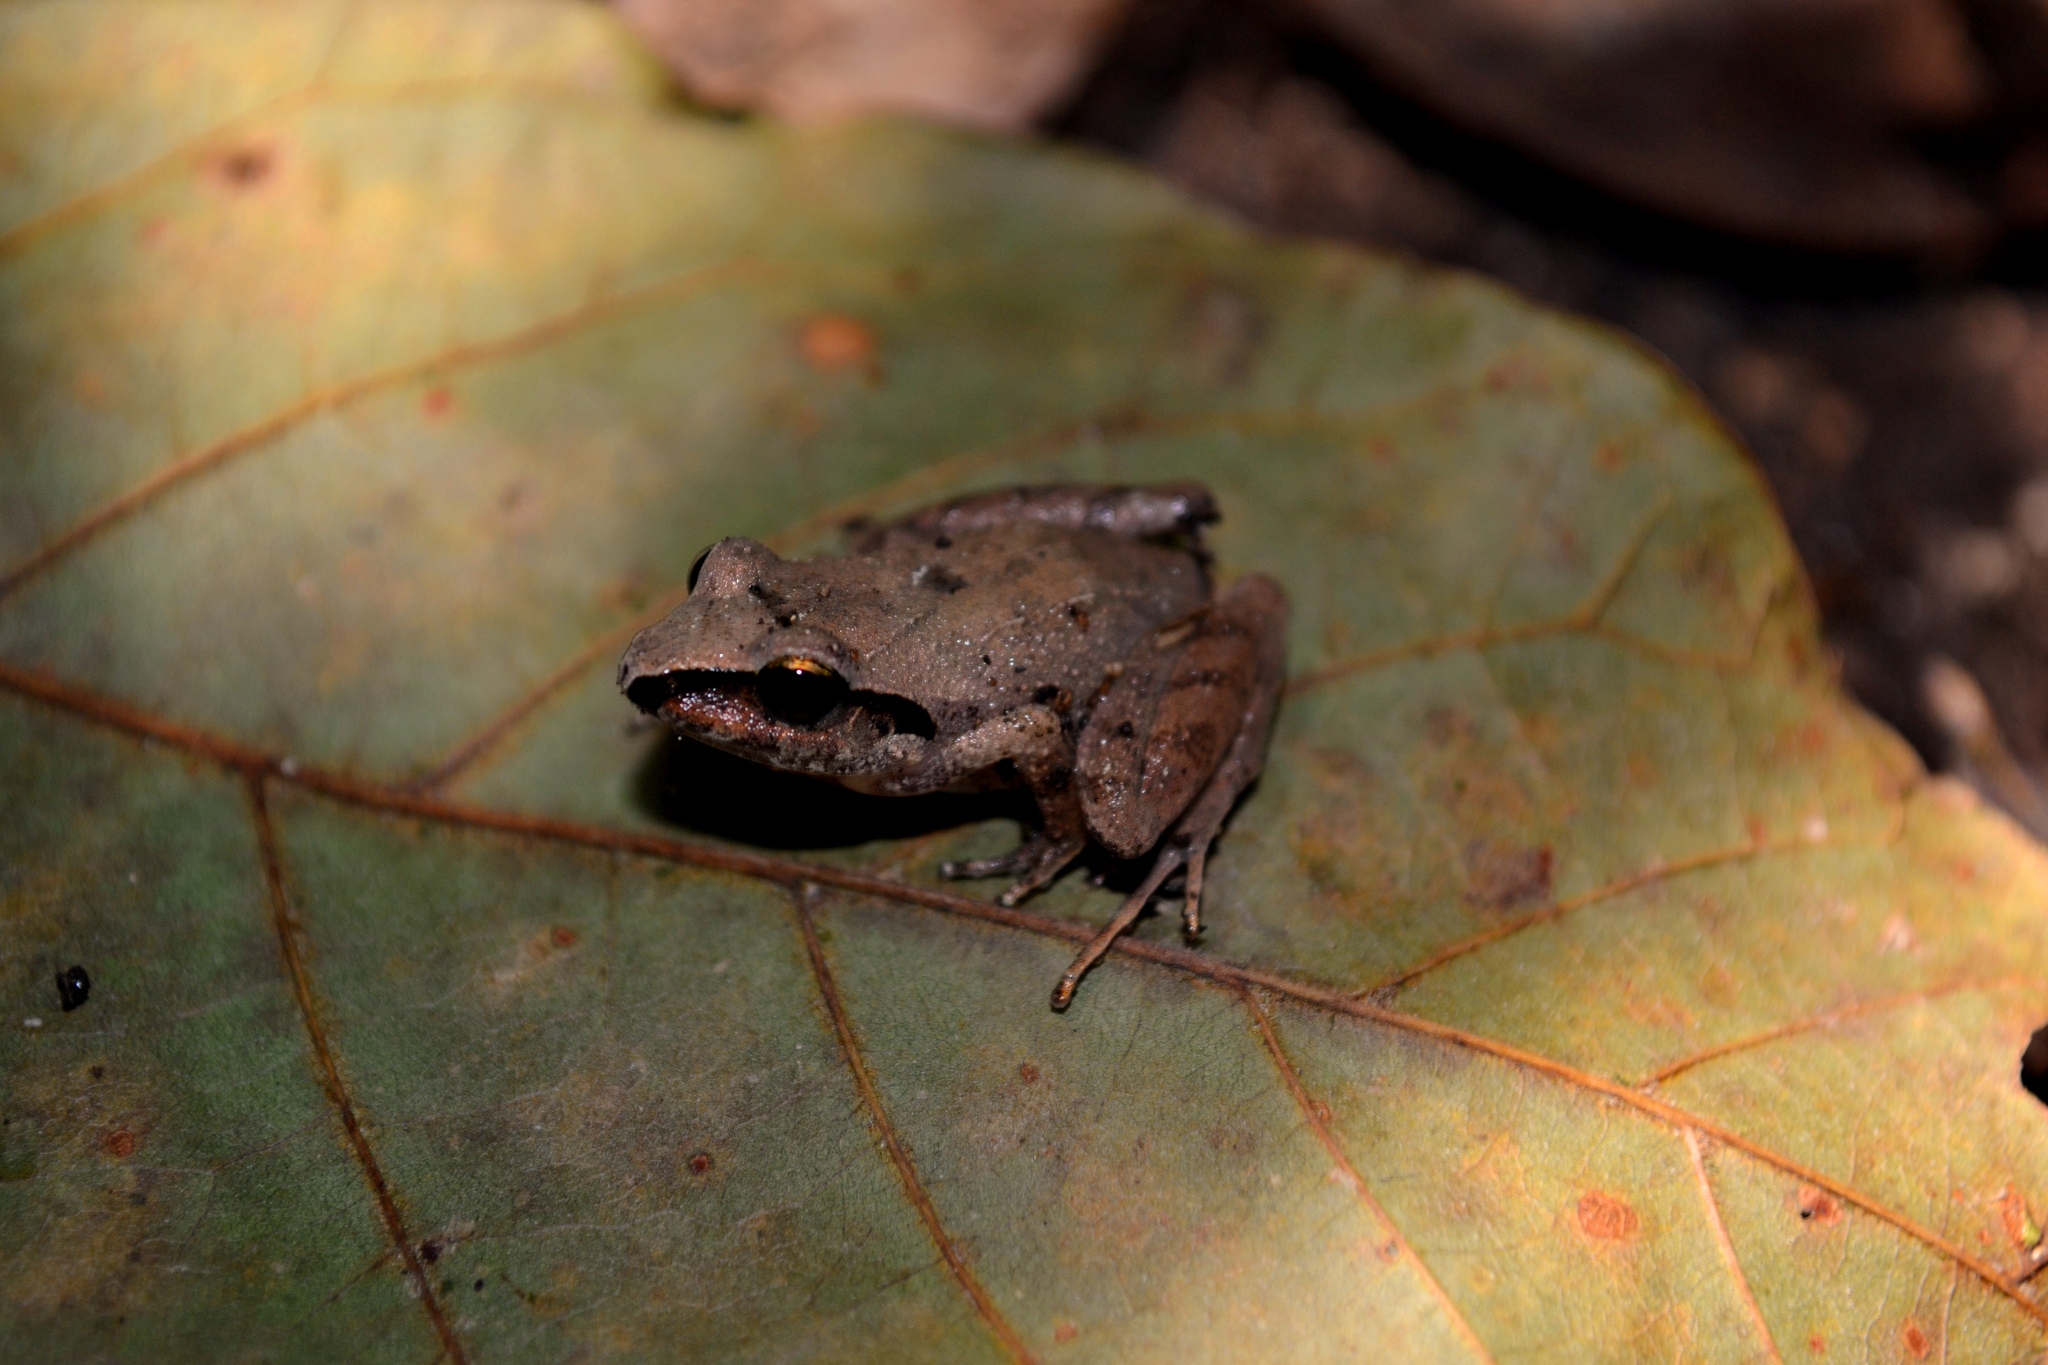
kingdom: Animalia
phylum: Chordata
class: Amphibia
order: Anura
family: Craugastoridae
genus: Craugastor
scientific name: Craugastor loki
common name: Common leaf-litter frog
